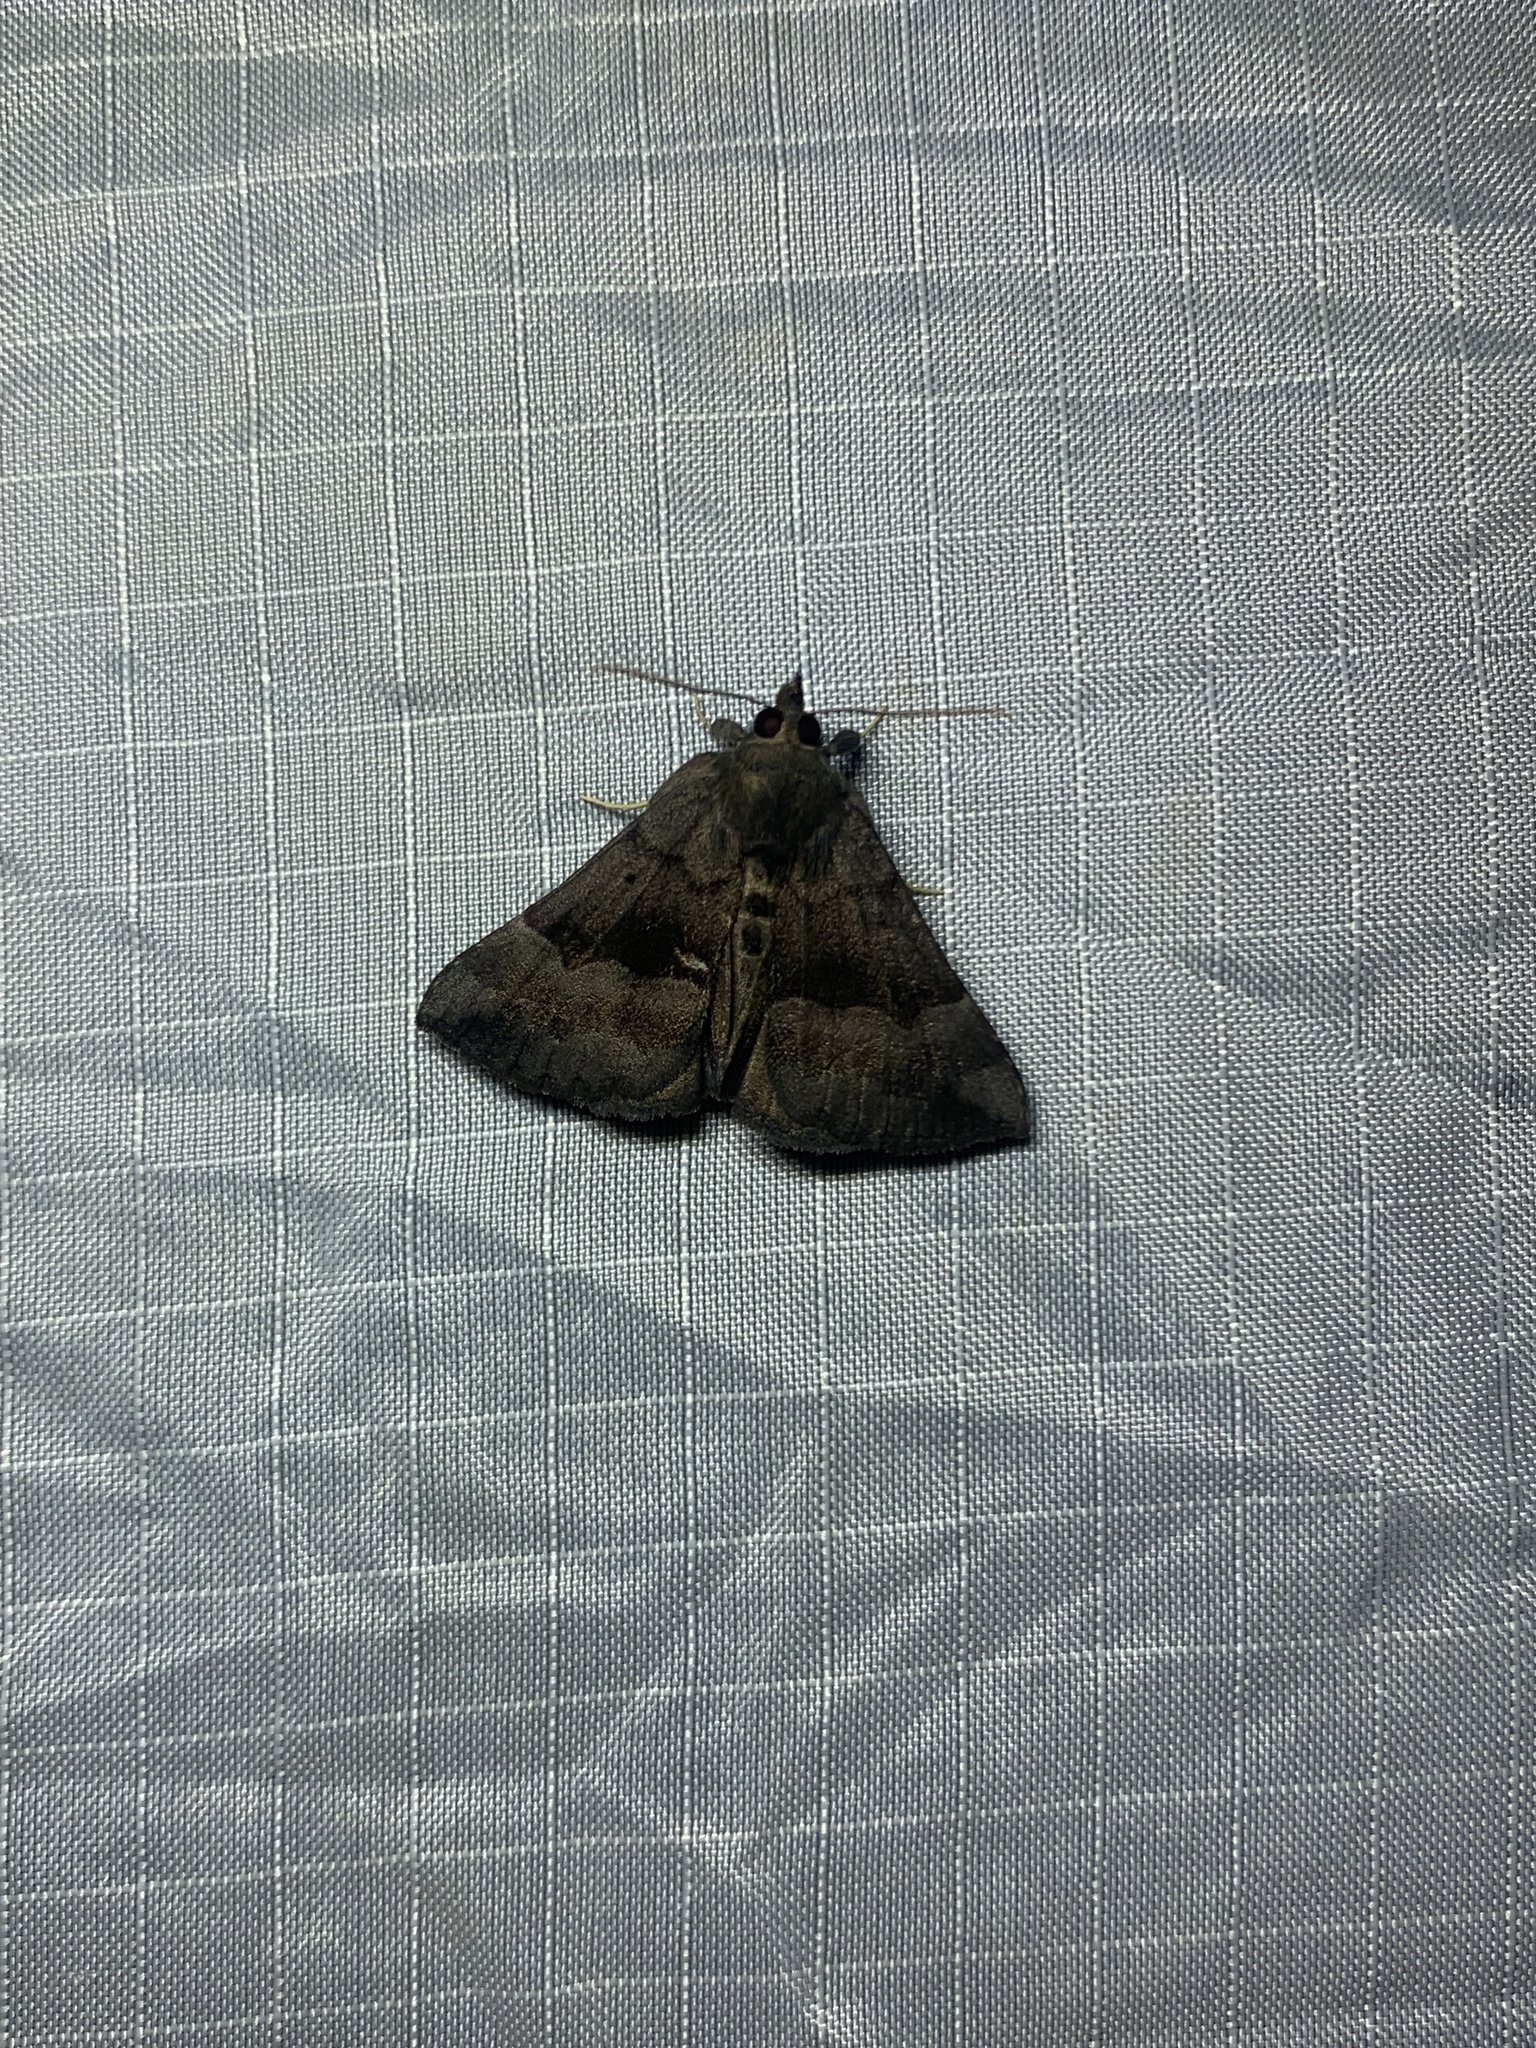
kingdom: Animalia
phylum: Arthropoda
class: Insecta
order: Lepidoptera
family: Erebidae
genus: Hypena
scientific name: Hypena madefactalis
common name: Gray-edged snout
